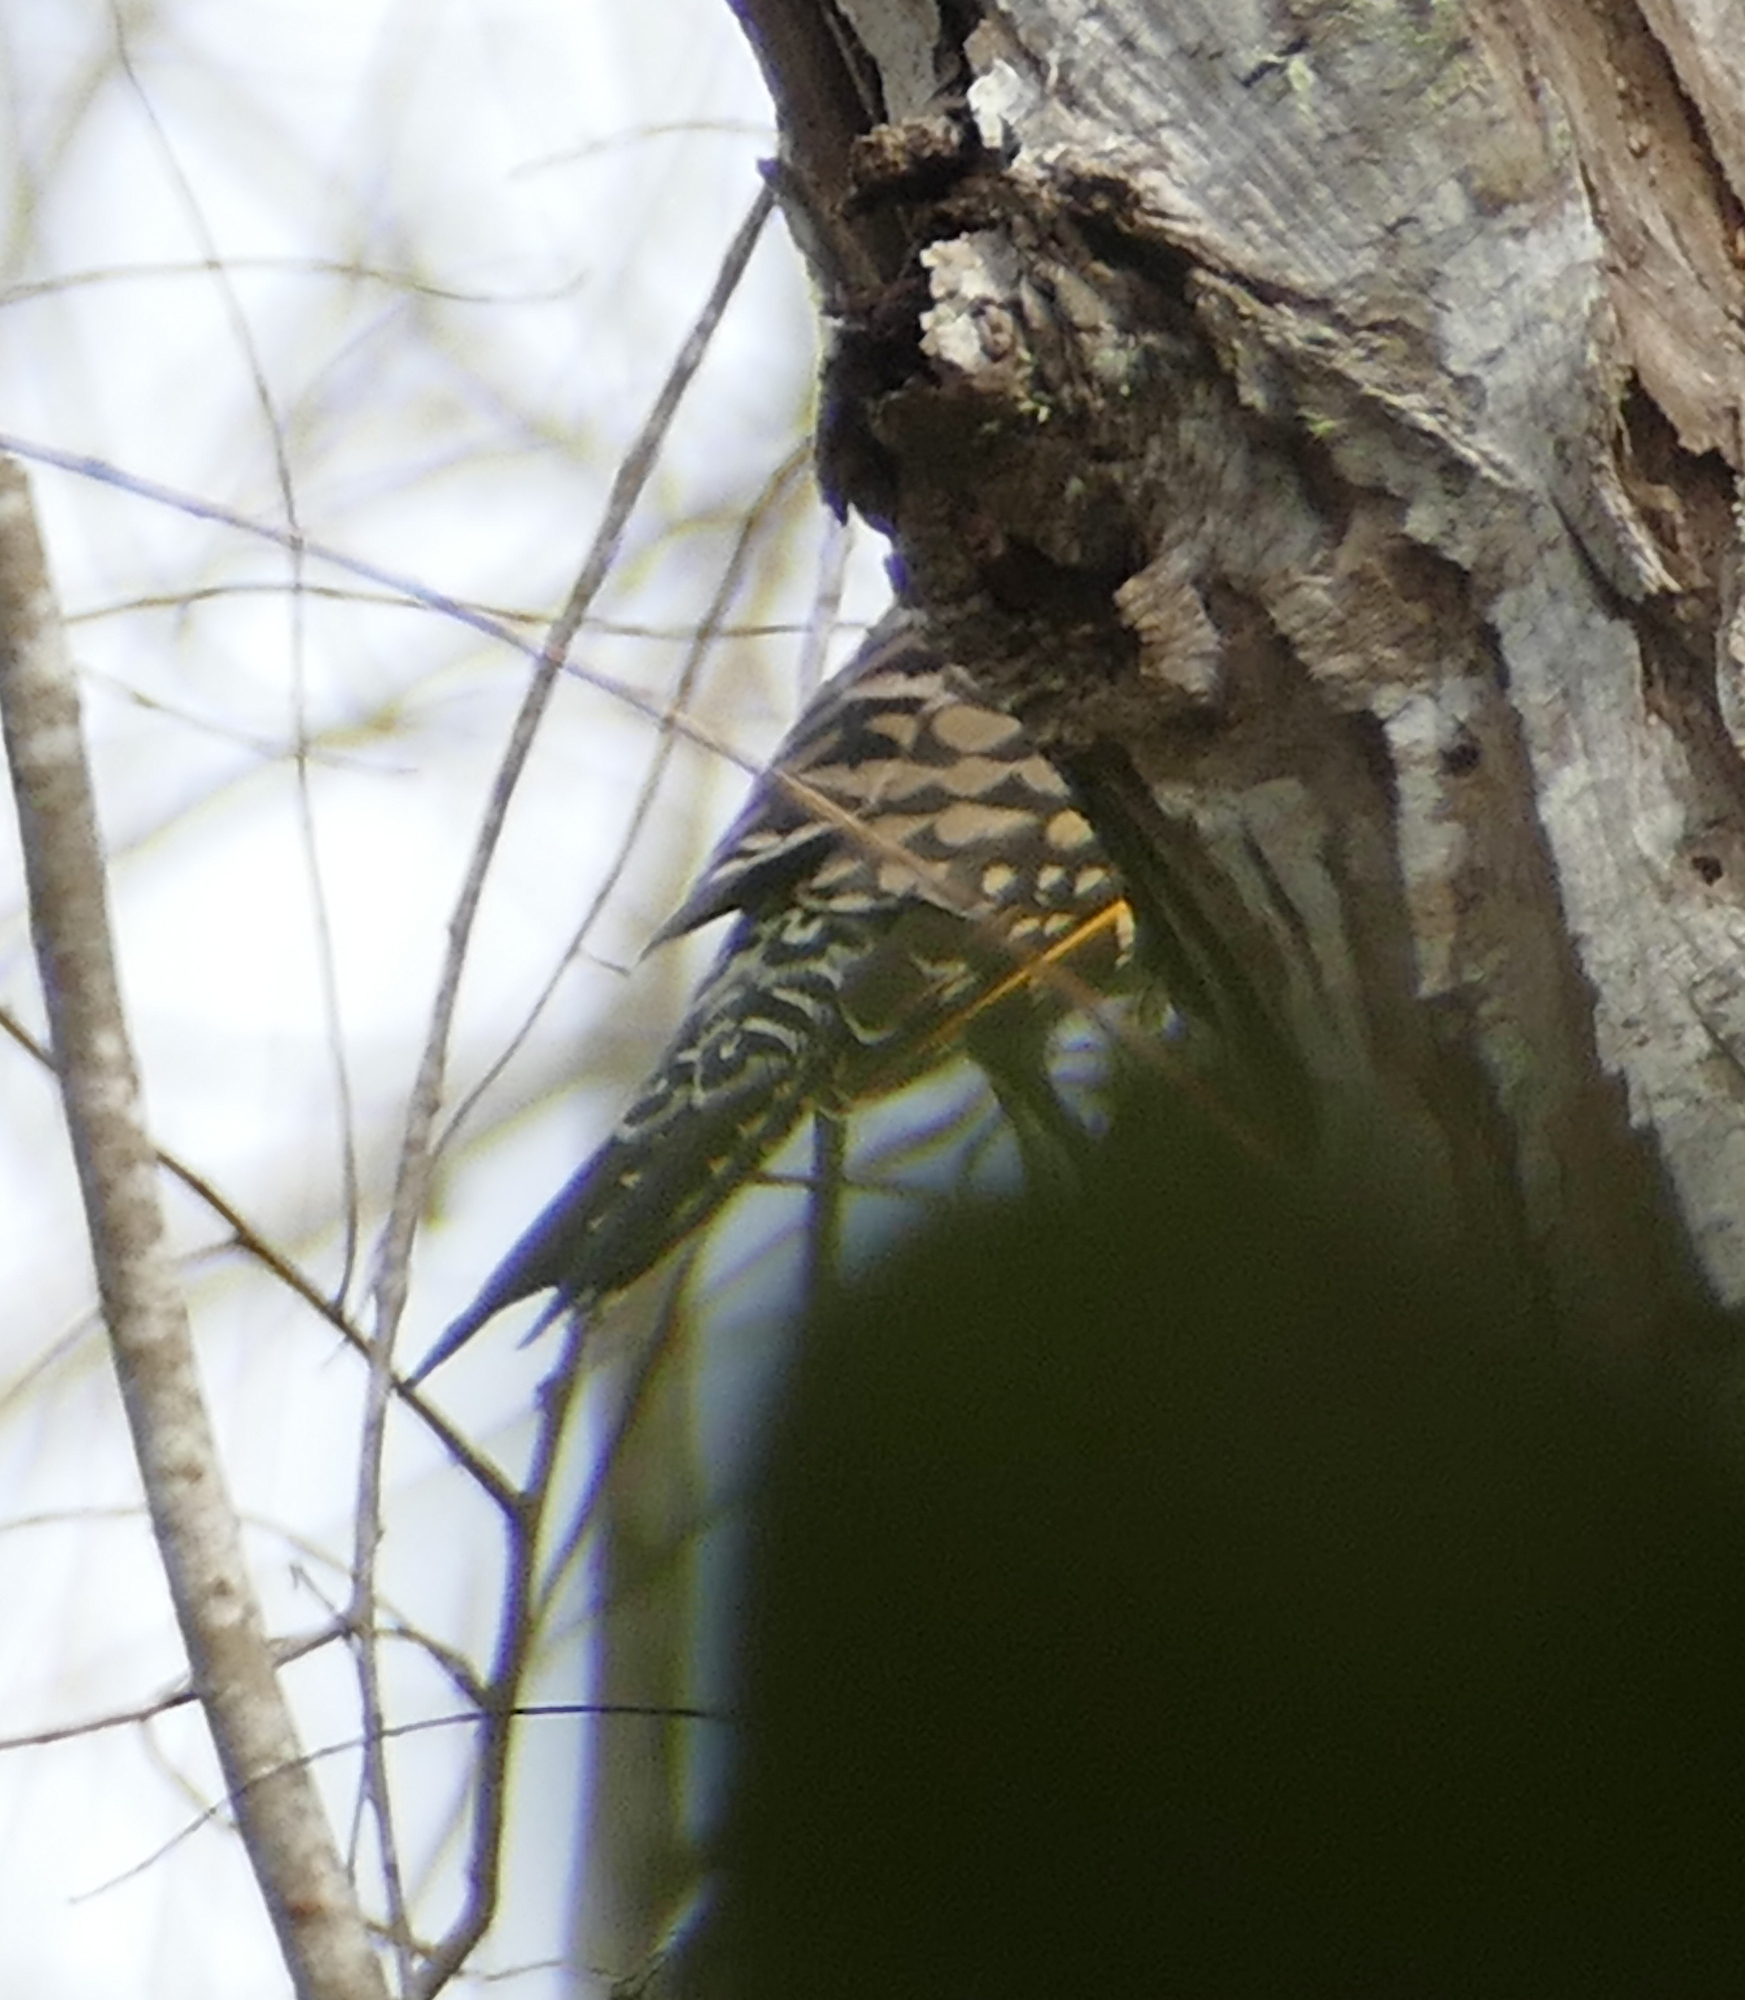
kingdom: Animalia
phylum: Chordata
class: Aves
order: Piciformes
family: Picidae
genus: Colaptes
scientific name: Colaptes auratus
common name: Northern flicker
